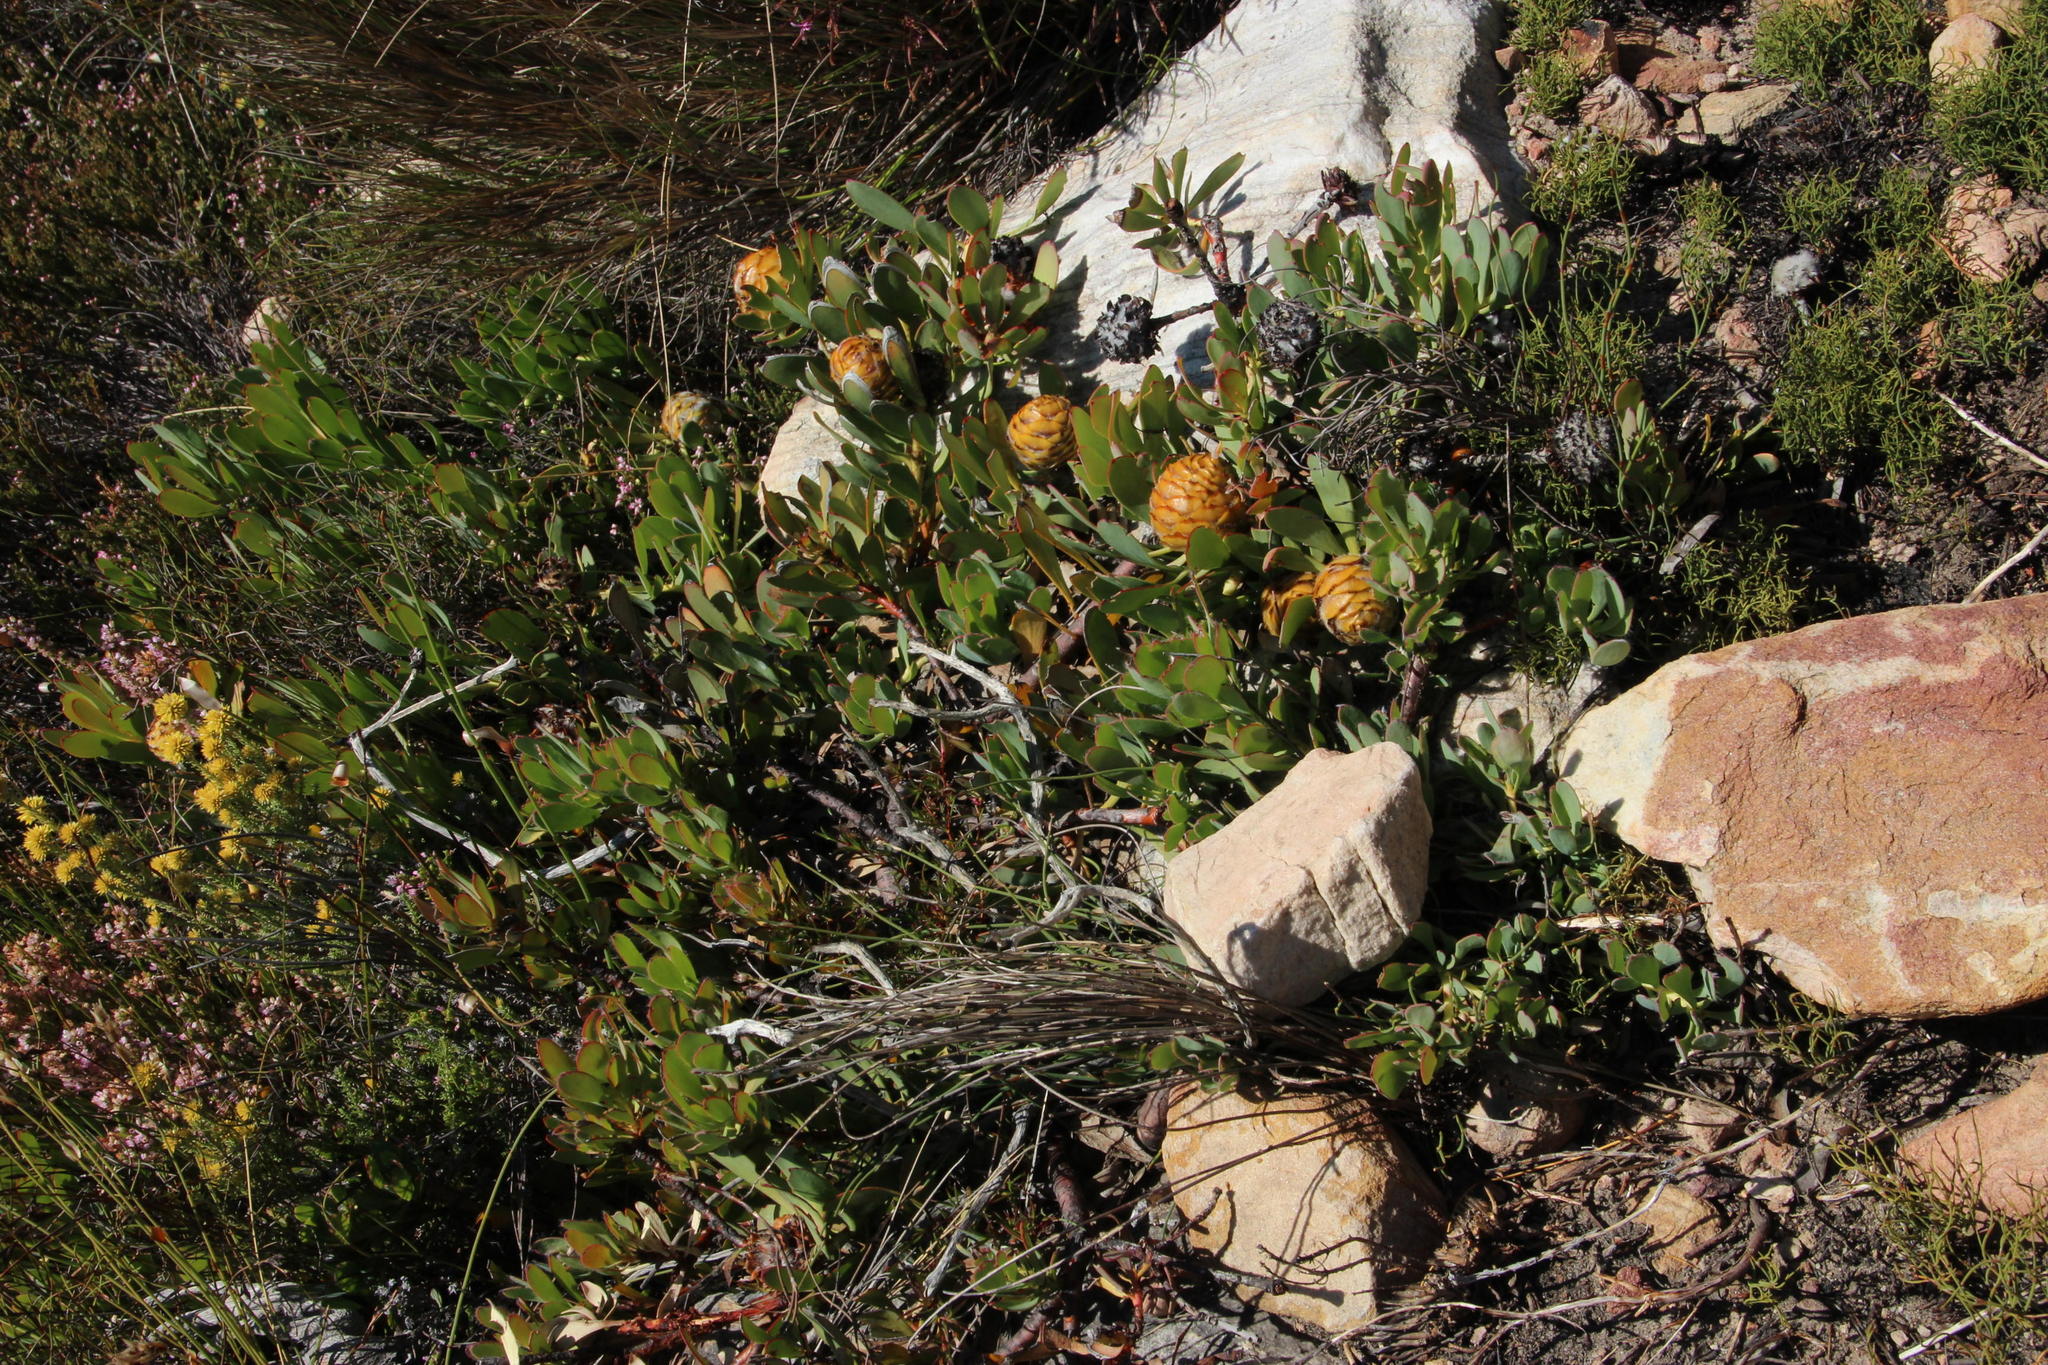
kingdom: Plantae
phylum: Tracheophyta
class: Magnoliopsida
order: Proteales
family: Proteaceae
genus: Leucadendron
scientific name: Leucadendron arcuatum
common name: Red-edge conebush
